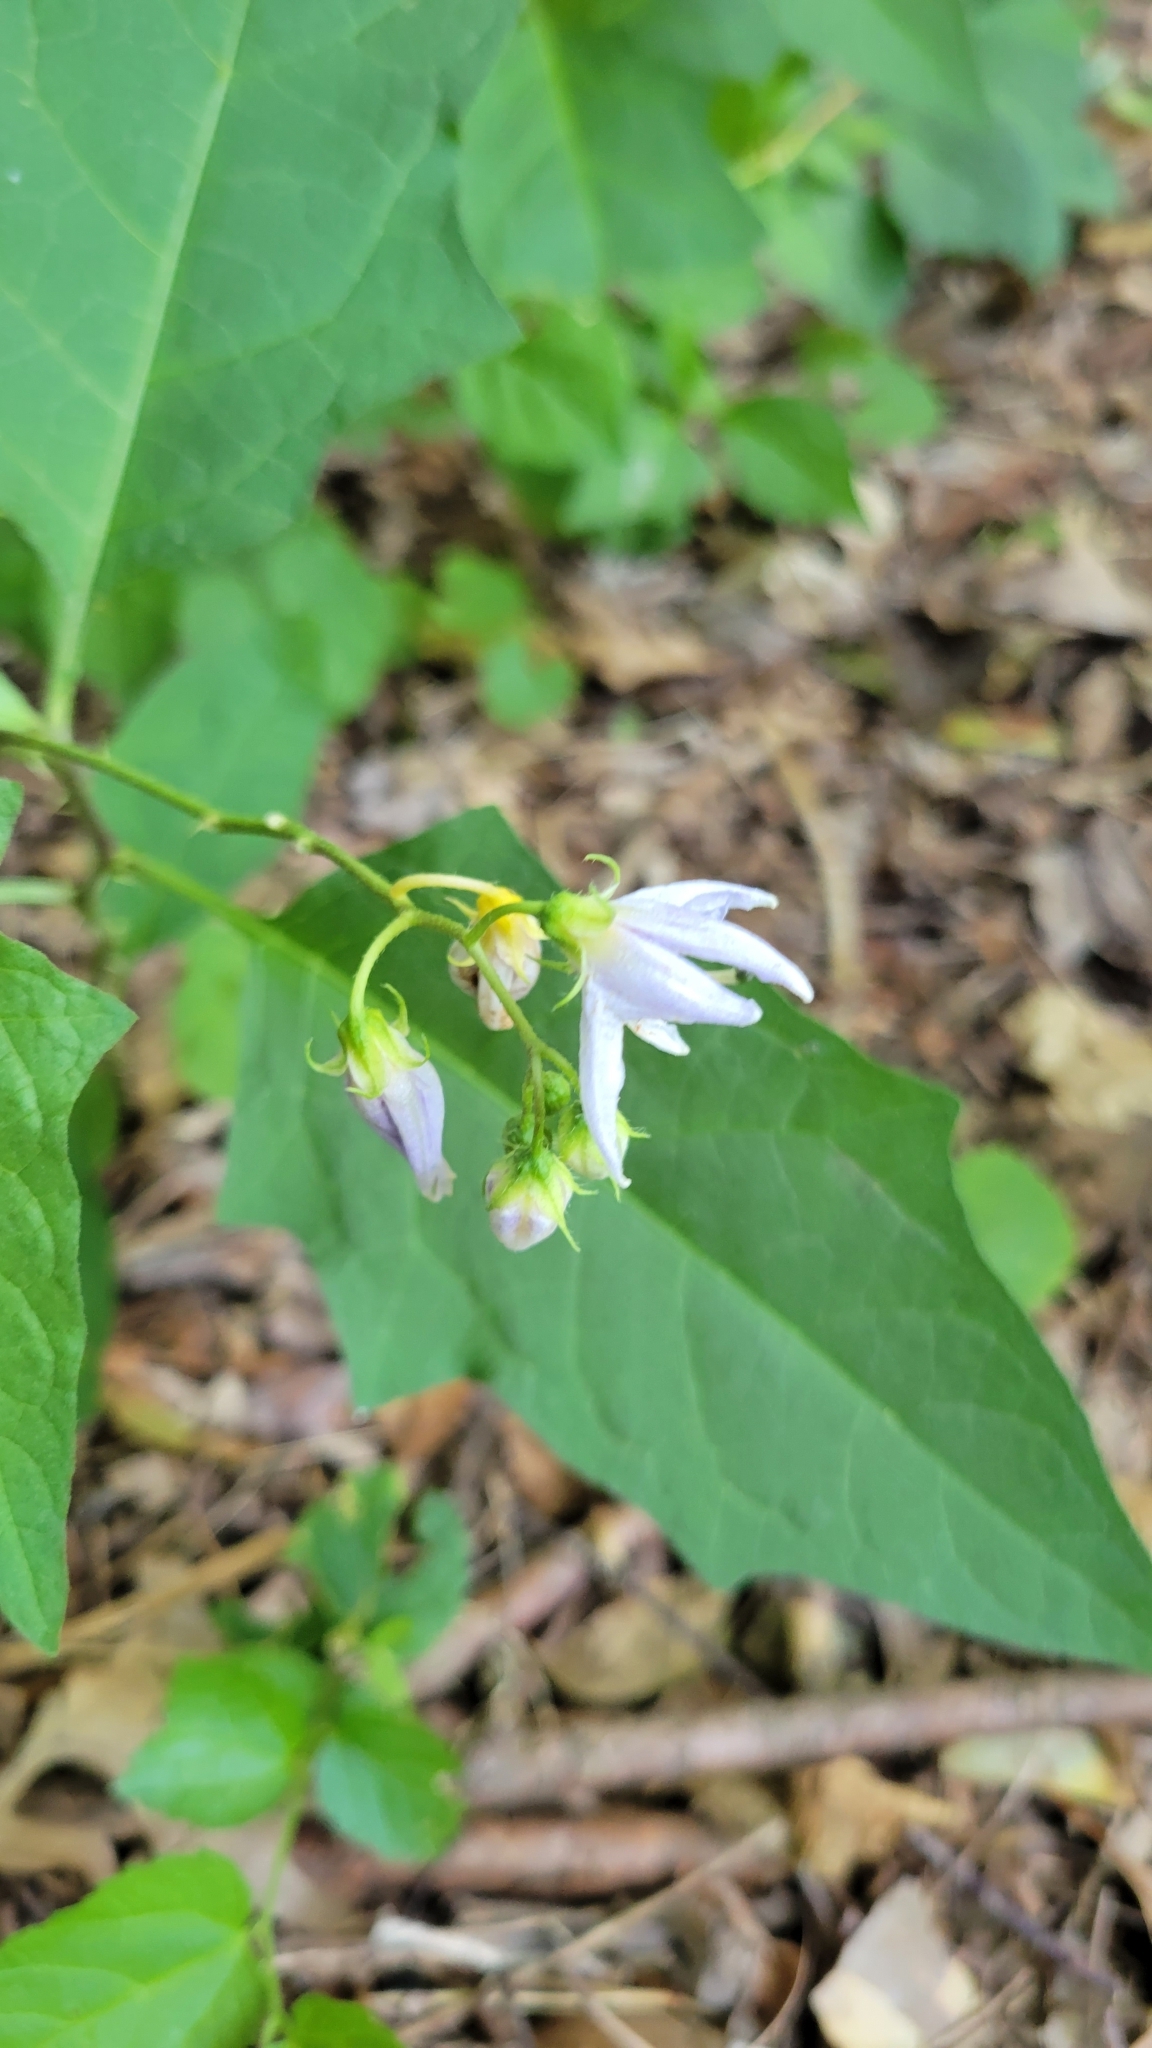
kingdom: Plantae
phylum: Tracheophyta
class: Magnoliopsida
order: Solanales
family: Solanaceae
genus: Solanum
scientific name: Solanum carolinense
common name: Horse-nettle
